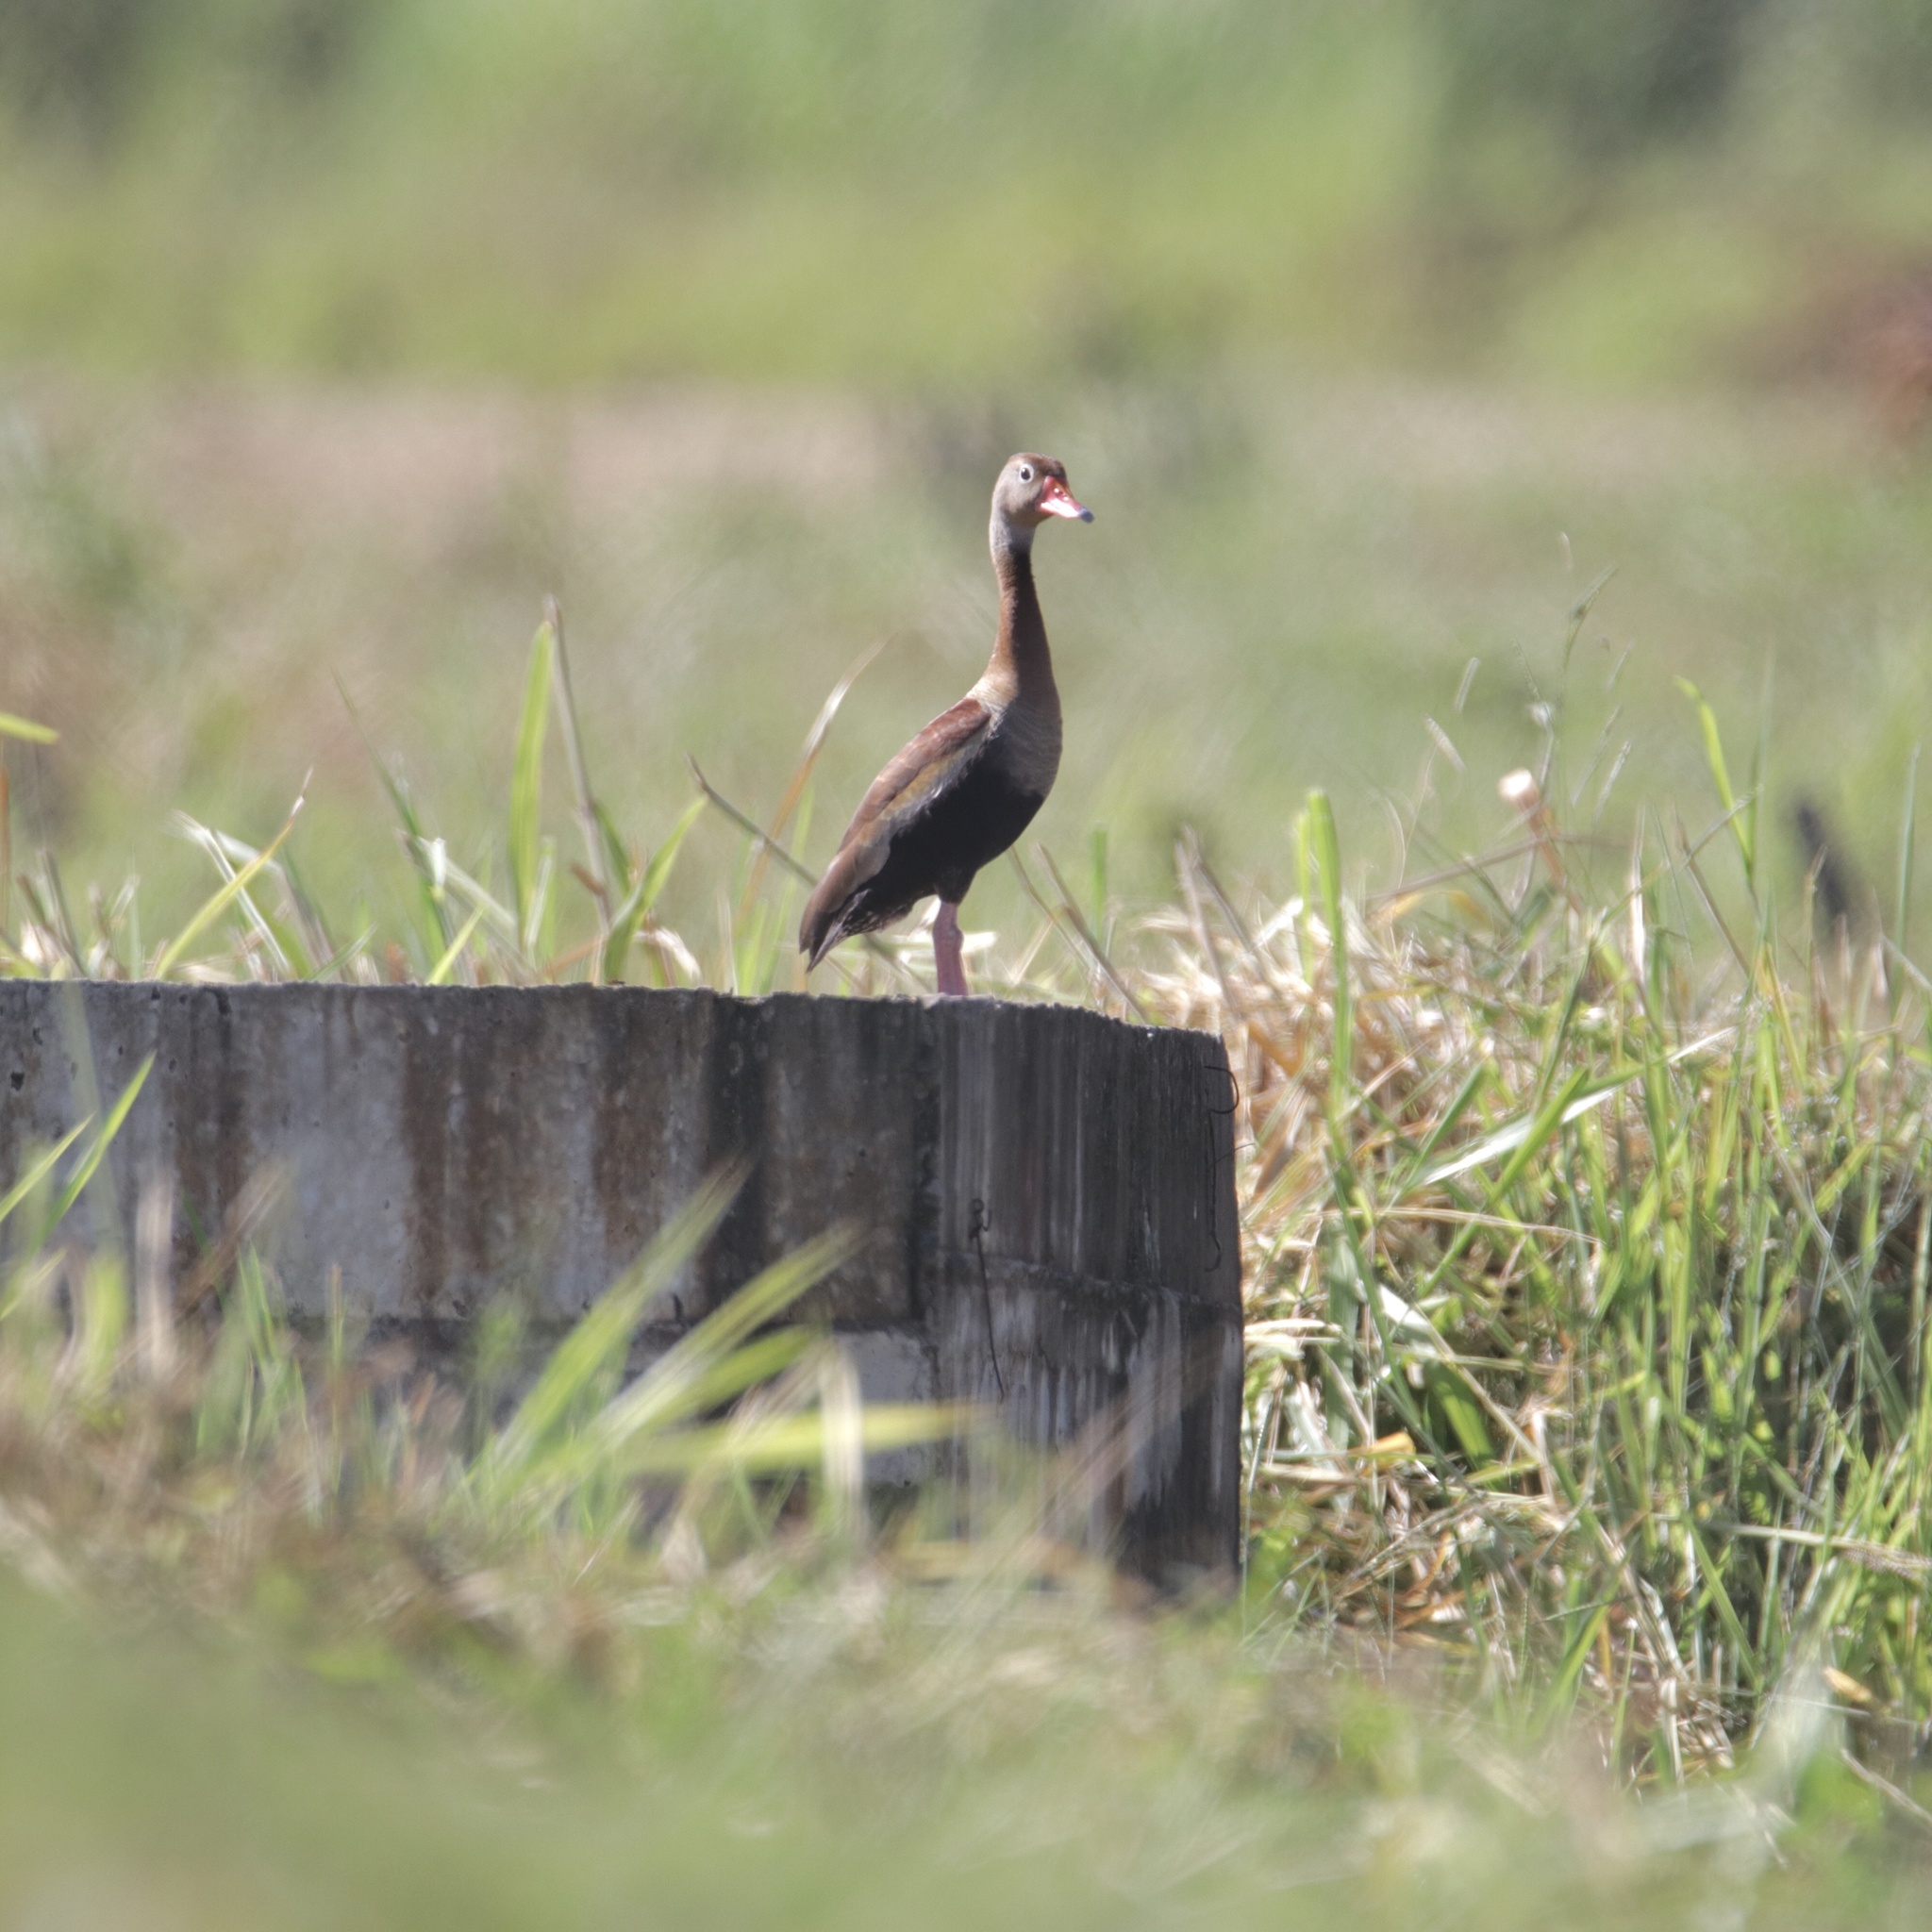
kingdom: Animalia
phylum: Chordata
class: Aves
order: Anseriformes
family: Anatidae
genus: Dendrocygna
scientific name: Dendrocygna autumnalis
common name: Black-bellied whistling duck
